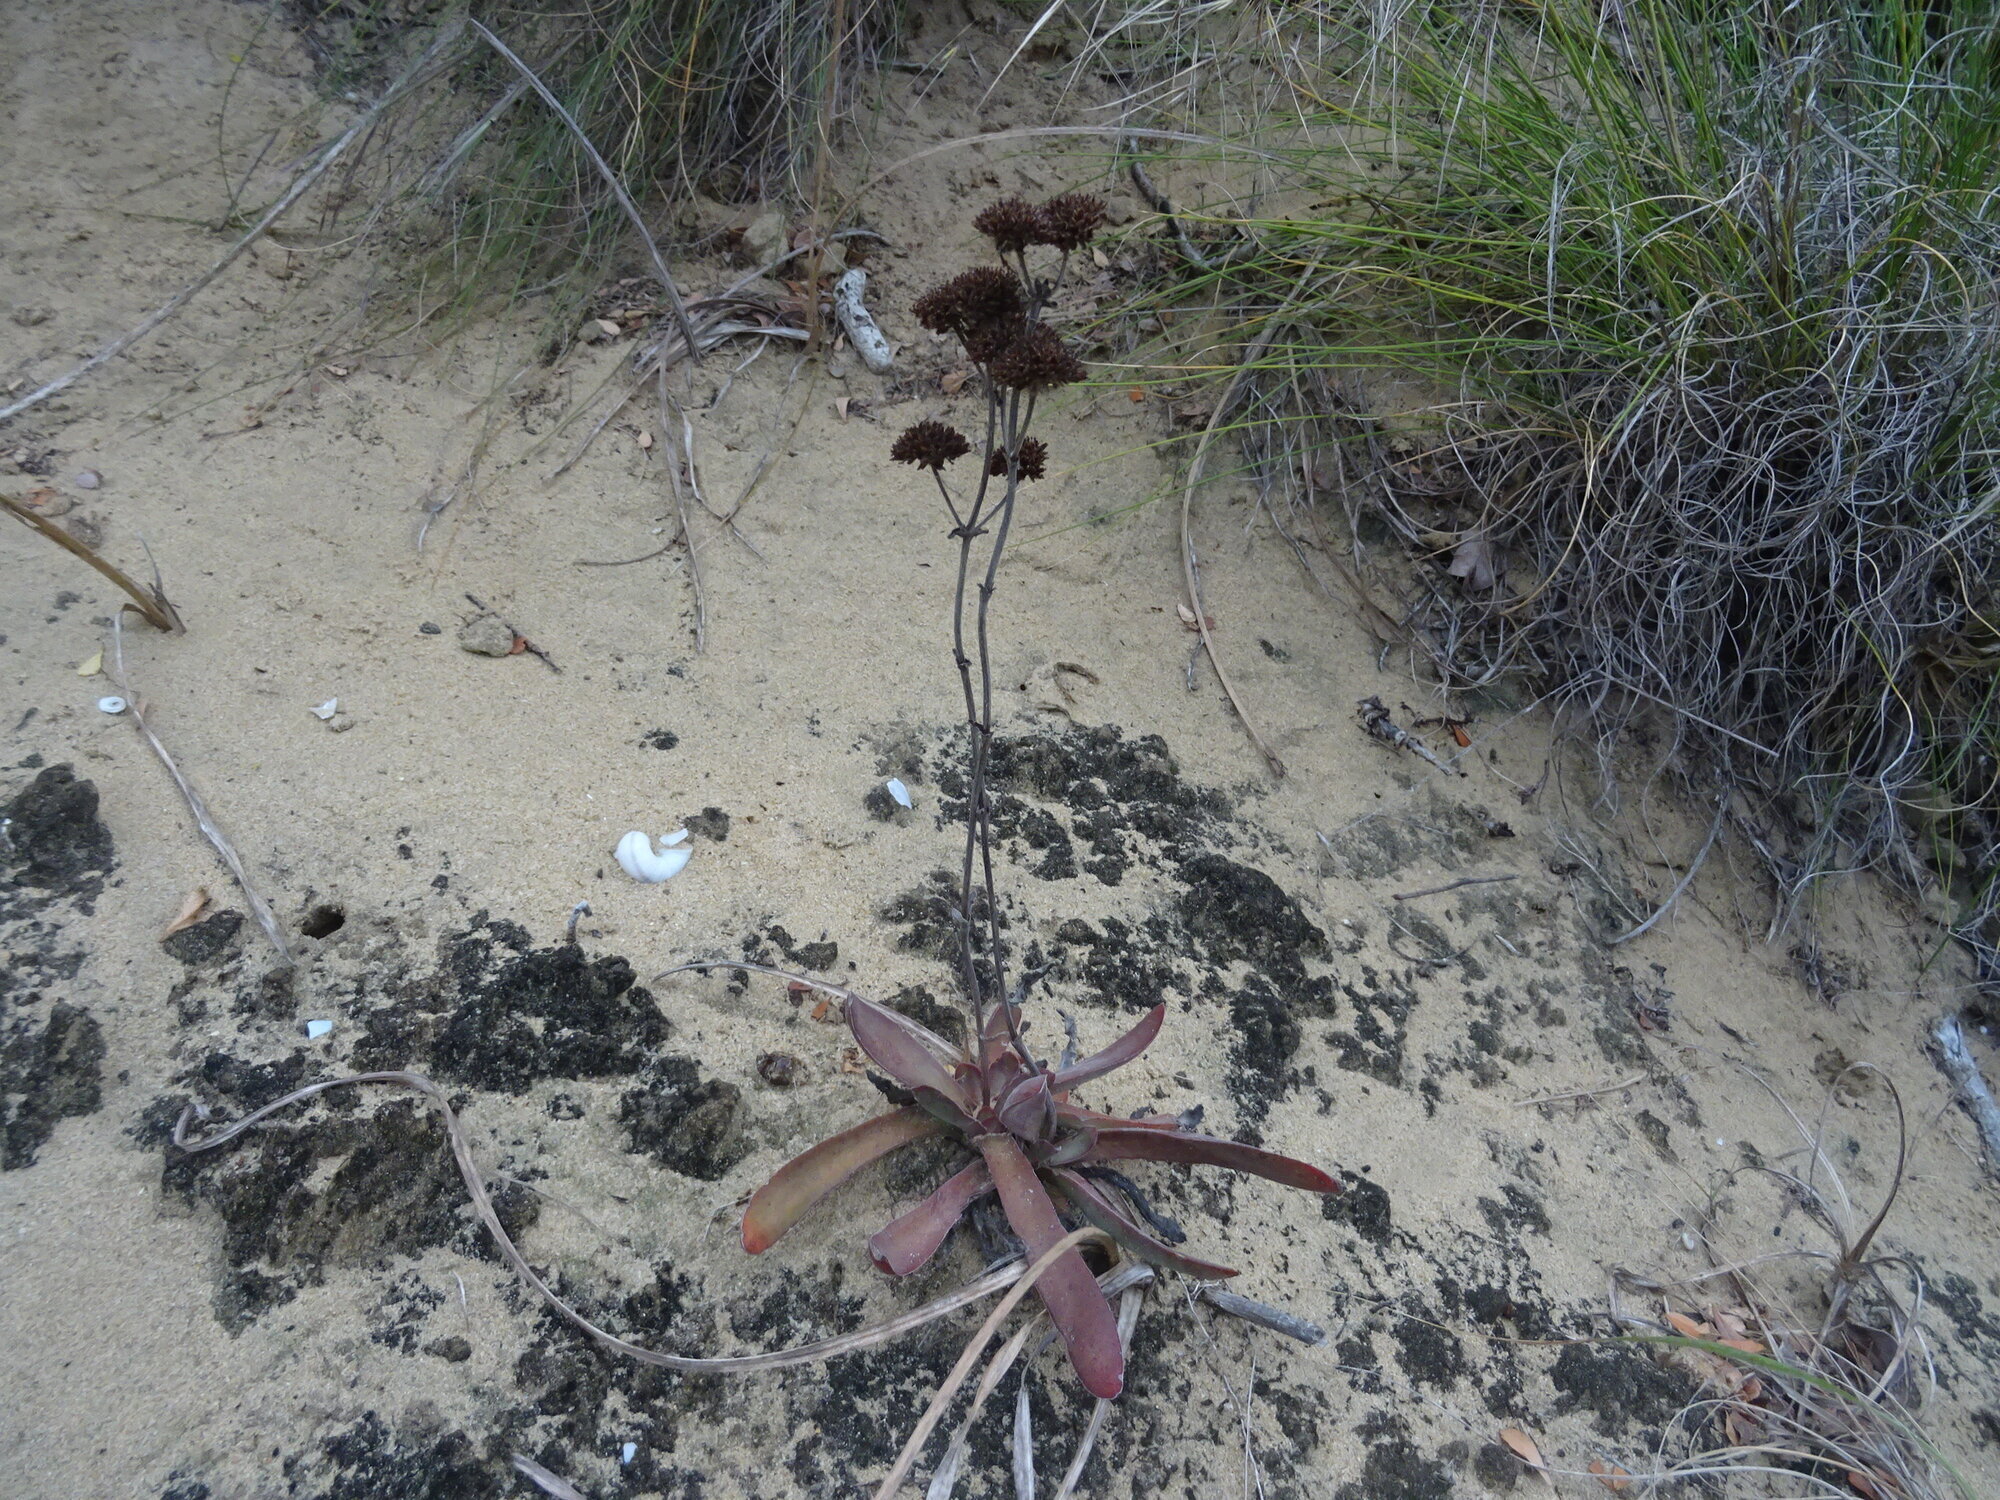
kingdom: Plantae
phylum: Tracheophyta
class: Magnoliopsida
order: Saxifragales
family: Crassulaceae
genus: Crassula
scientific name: Crassula nudicaulis
